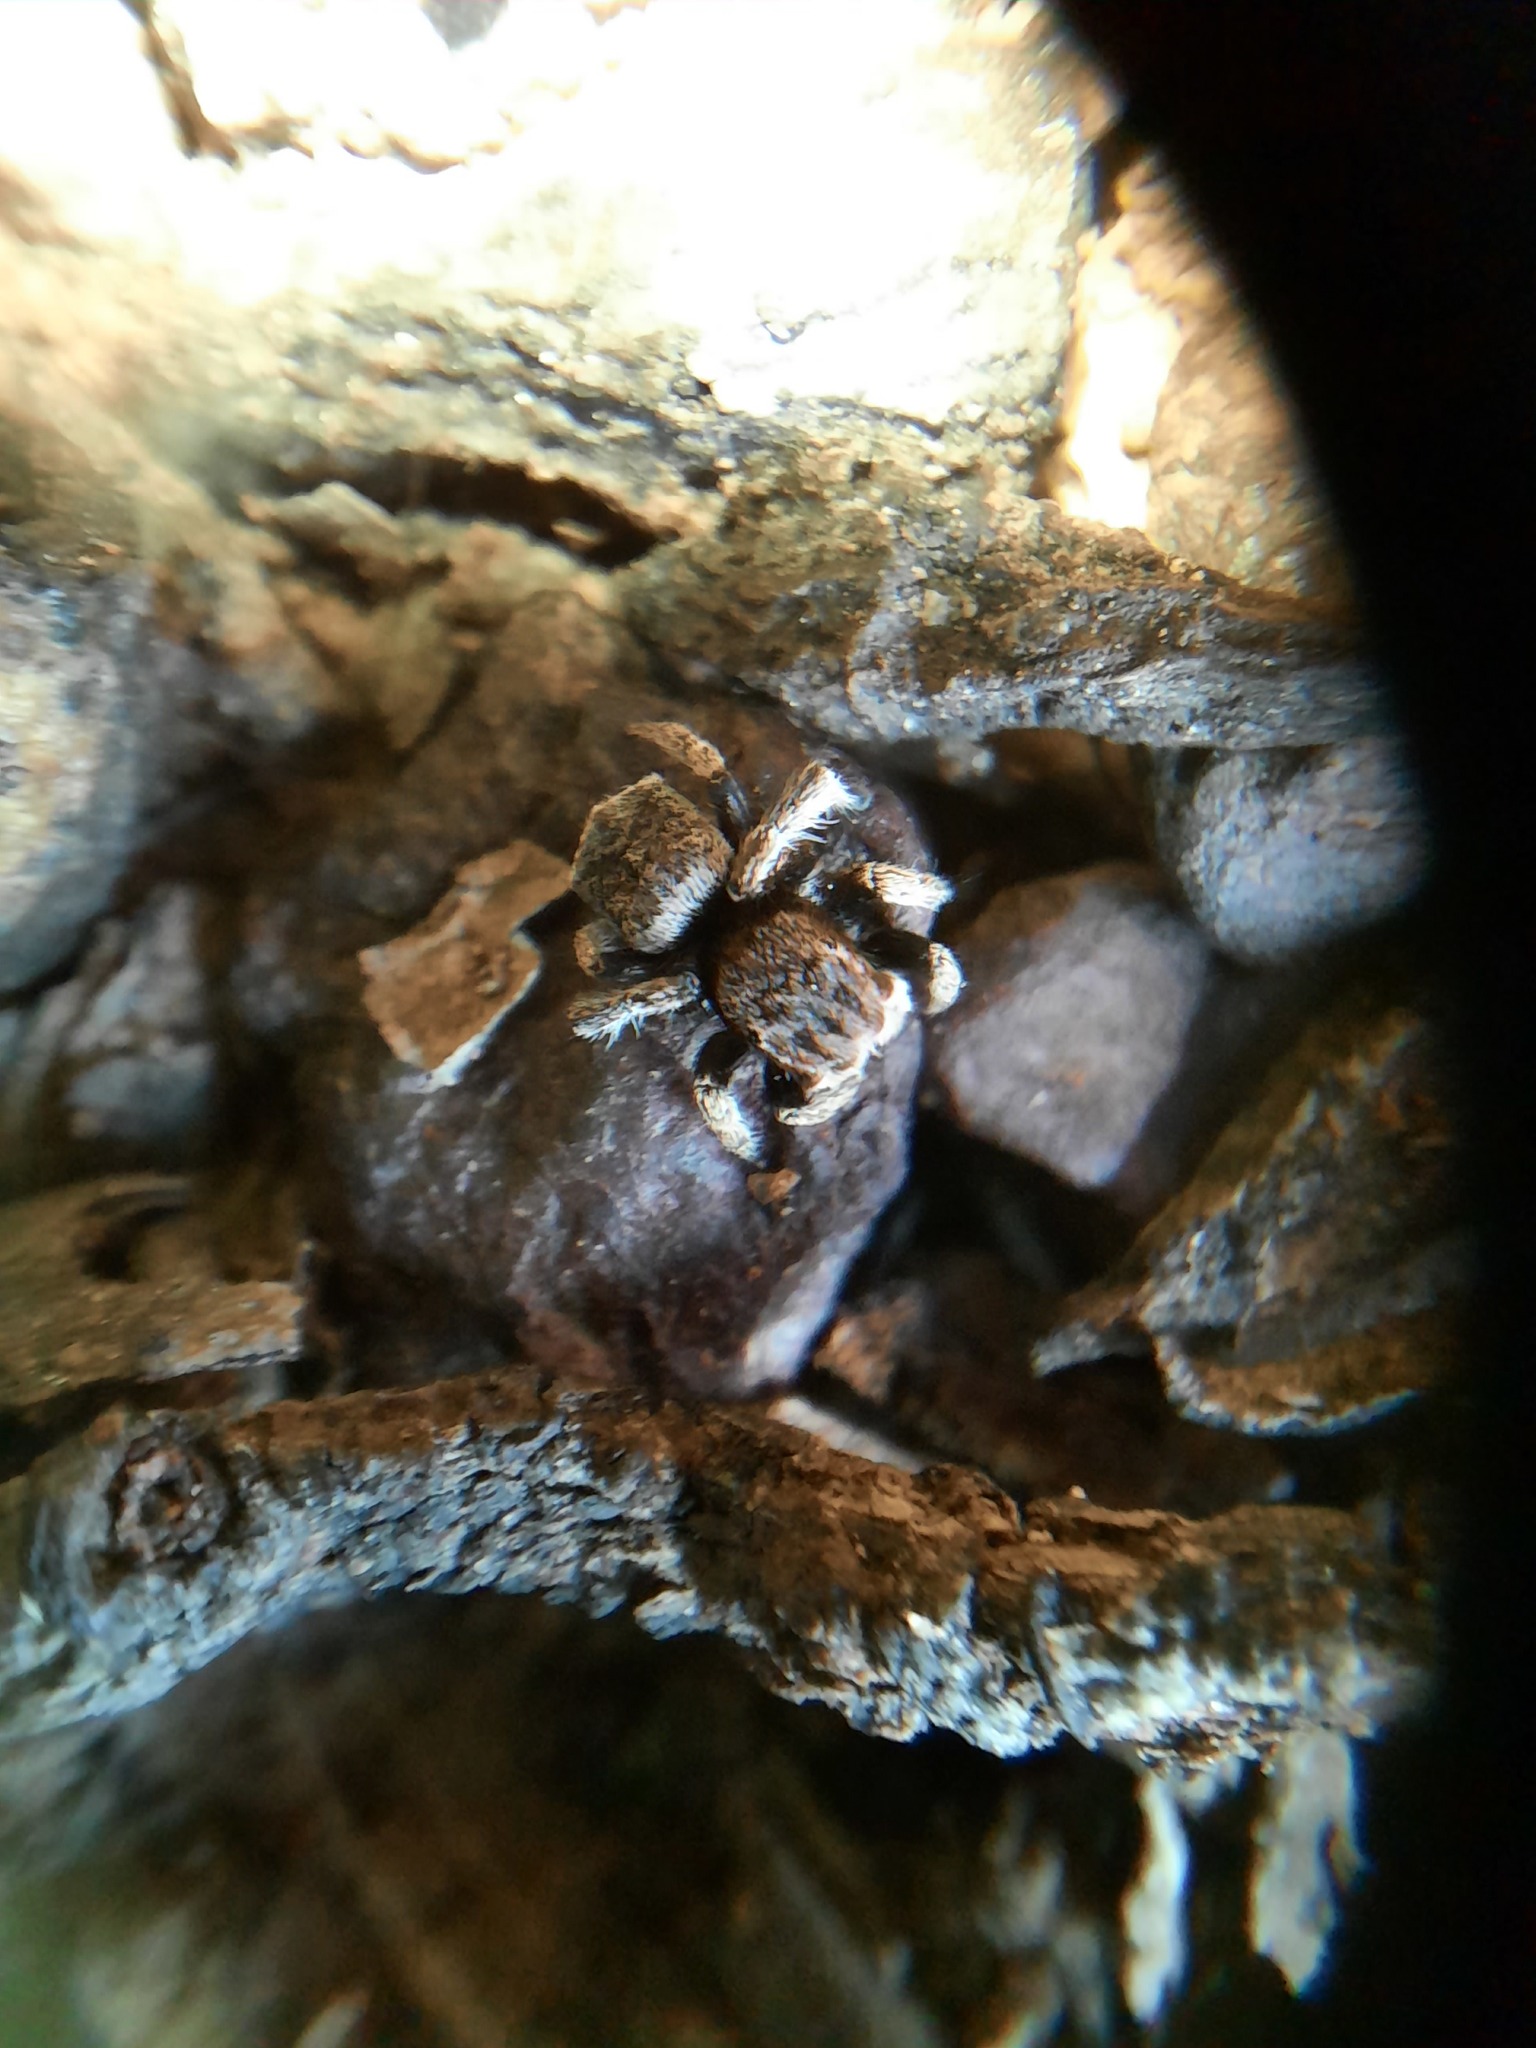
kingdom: Animalia
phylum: Arthropoda
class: Arachnida
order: Araneae
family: Salticidae
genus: Maratus
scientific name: Maratus vespertilio
